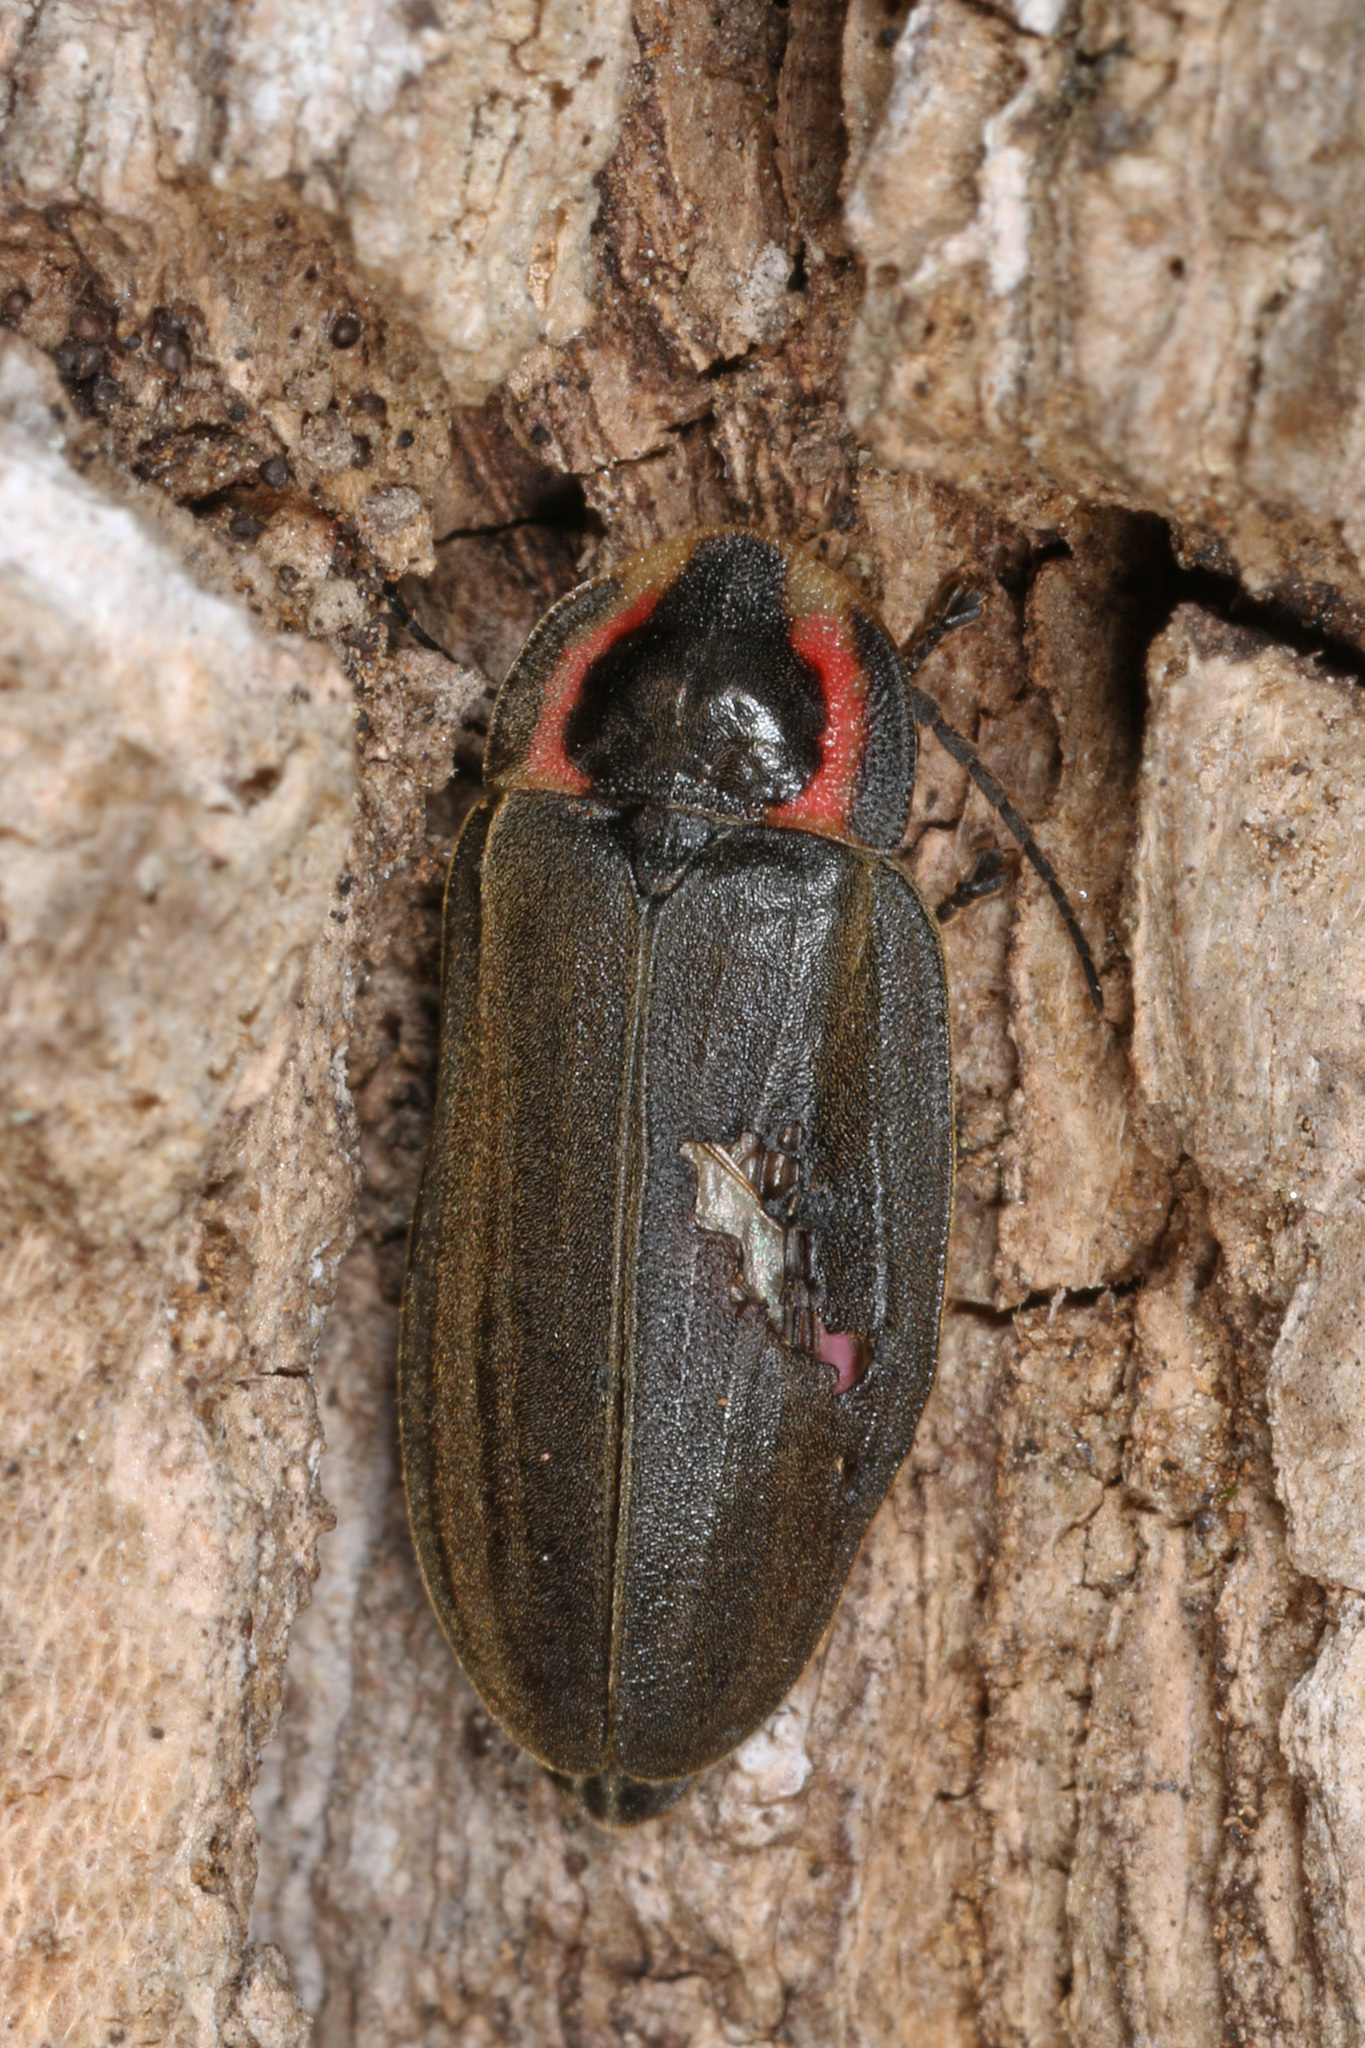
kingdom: Animalia
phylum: Arthropoda
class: Insecta
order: Coleoptera
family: Lampyridae
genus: Photinus
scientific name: Photinus corrusca
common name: Winter firefly
